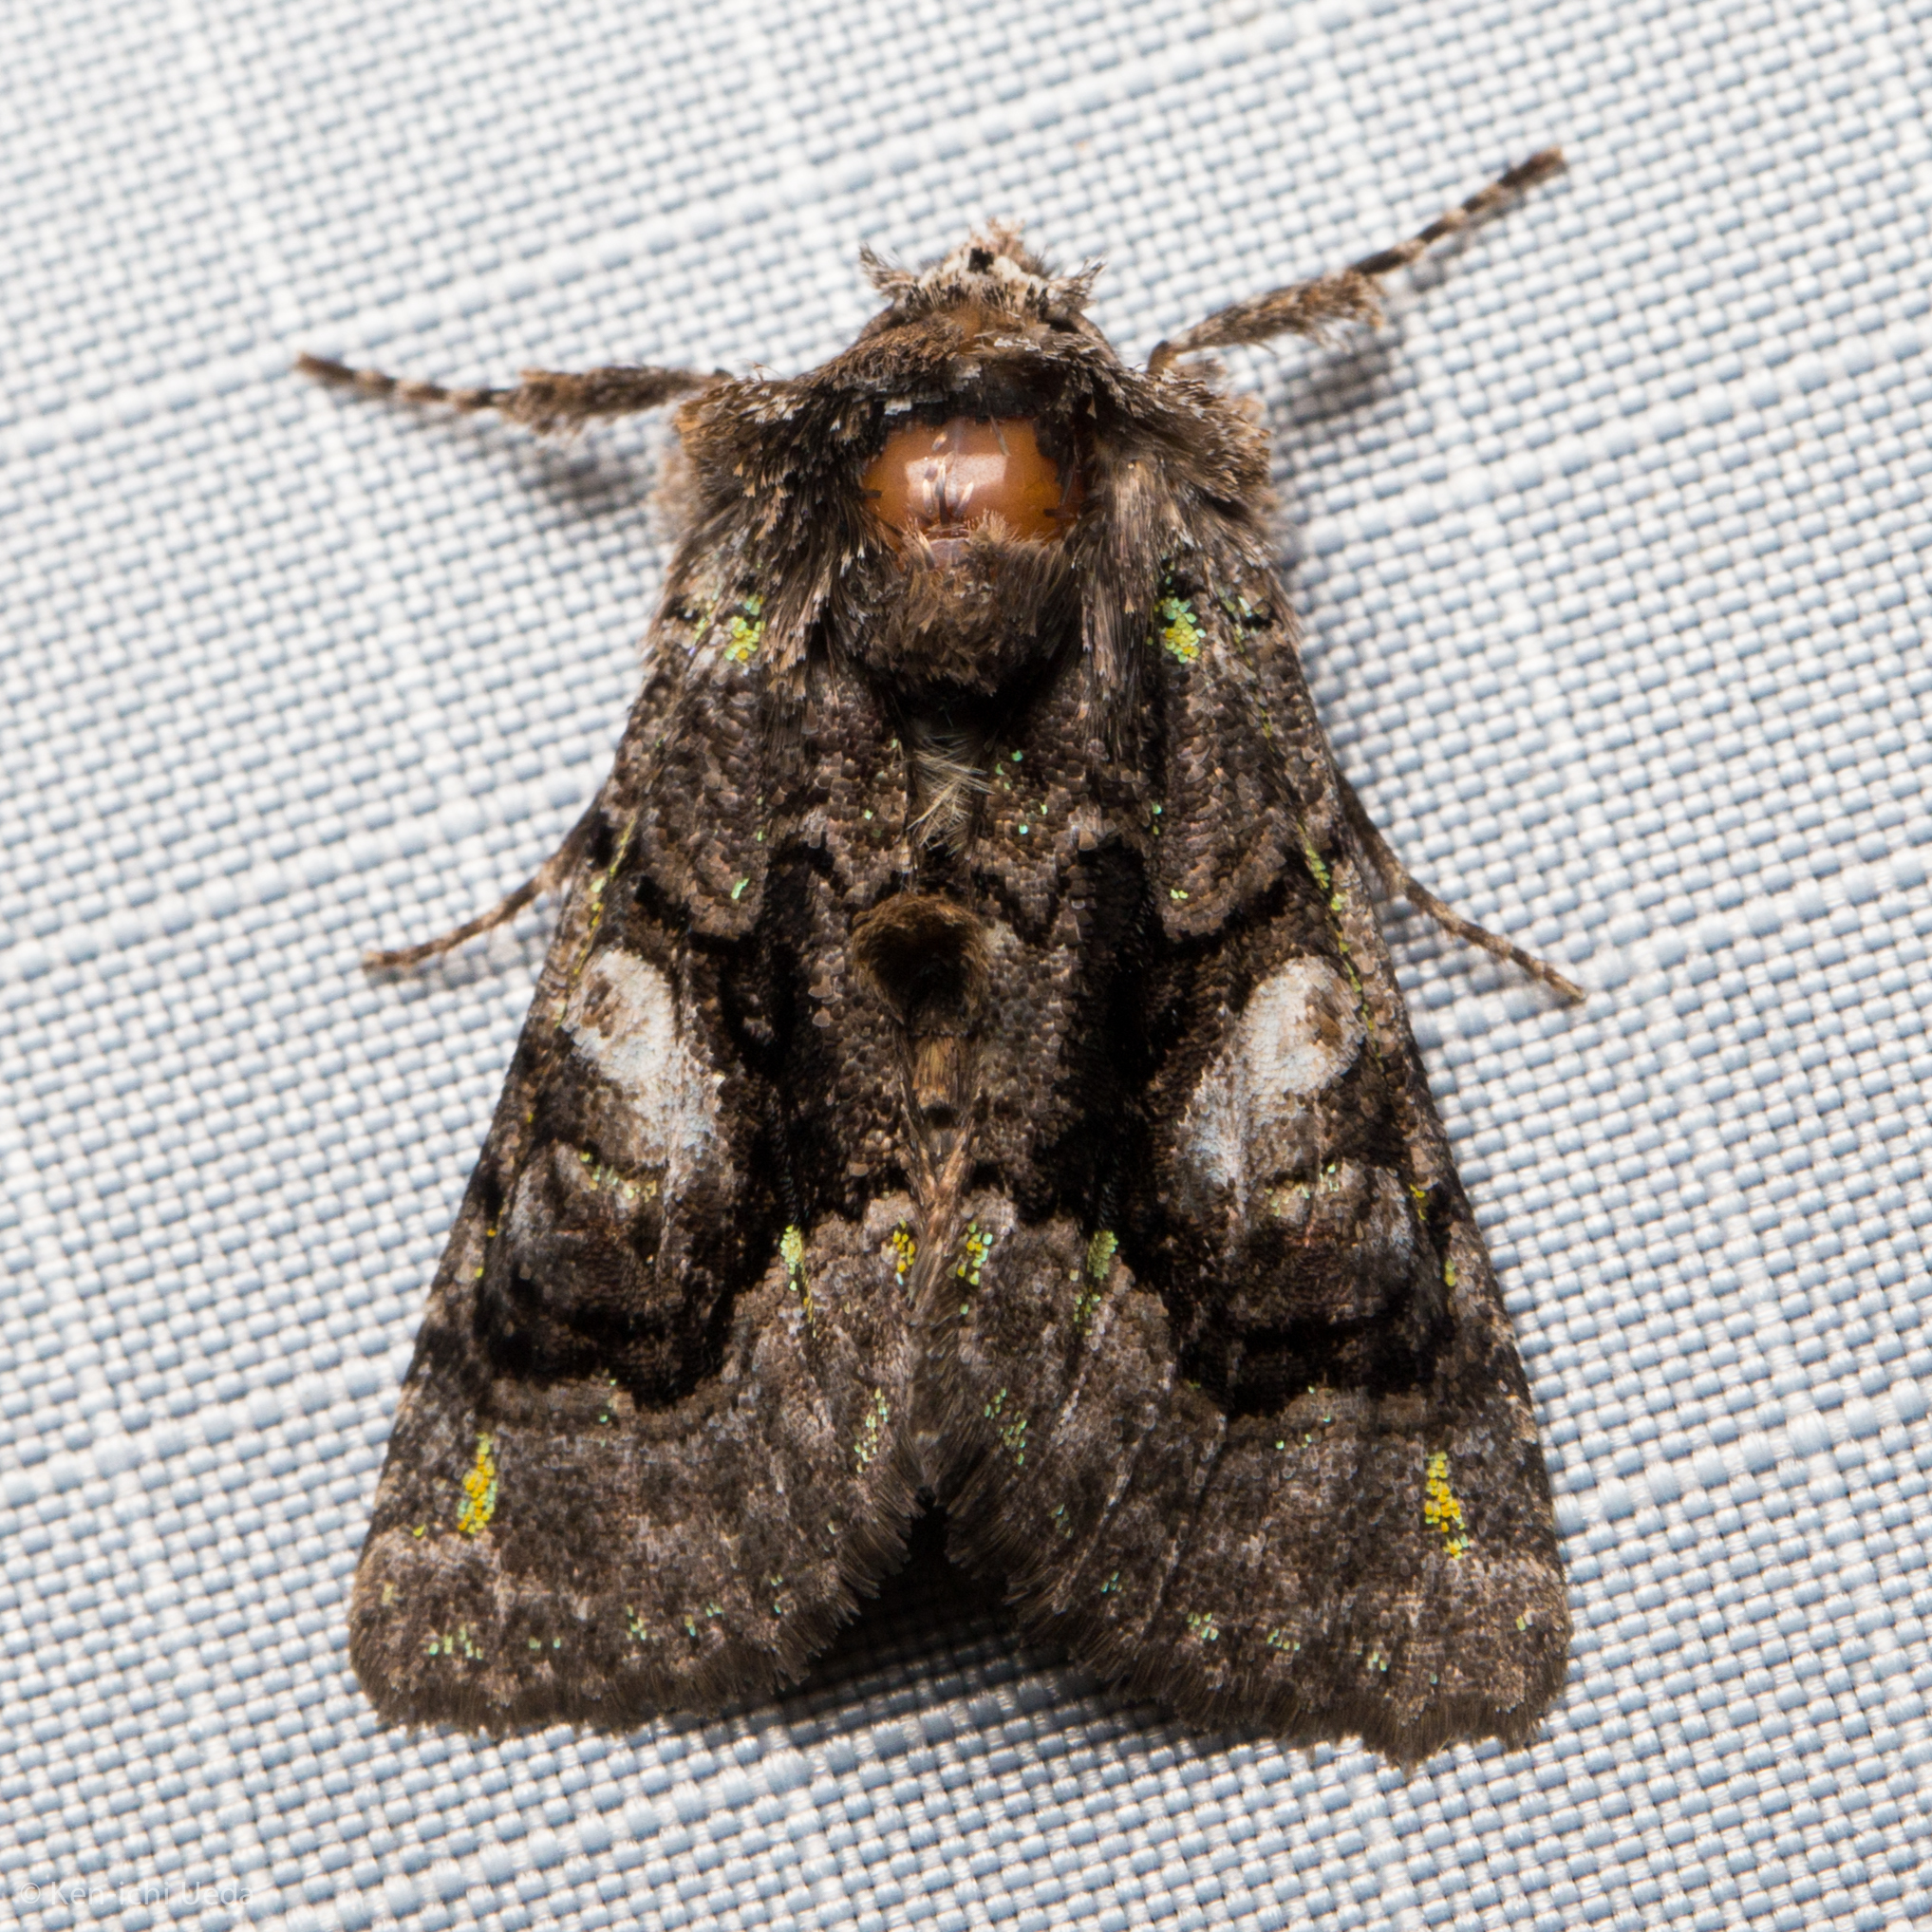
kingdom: Animalia
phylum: Arthropoda
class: Insecta
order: Lepidoptera
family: Noctuidae
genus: Behrensia
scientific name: Behrensia conchiformis
